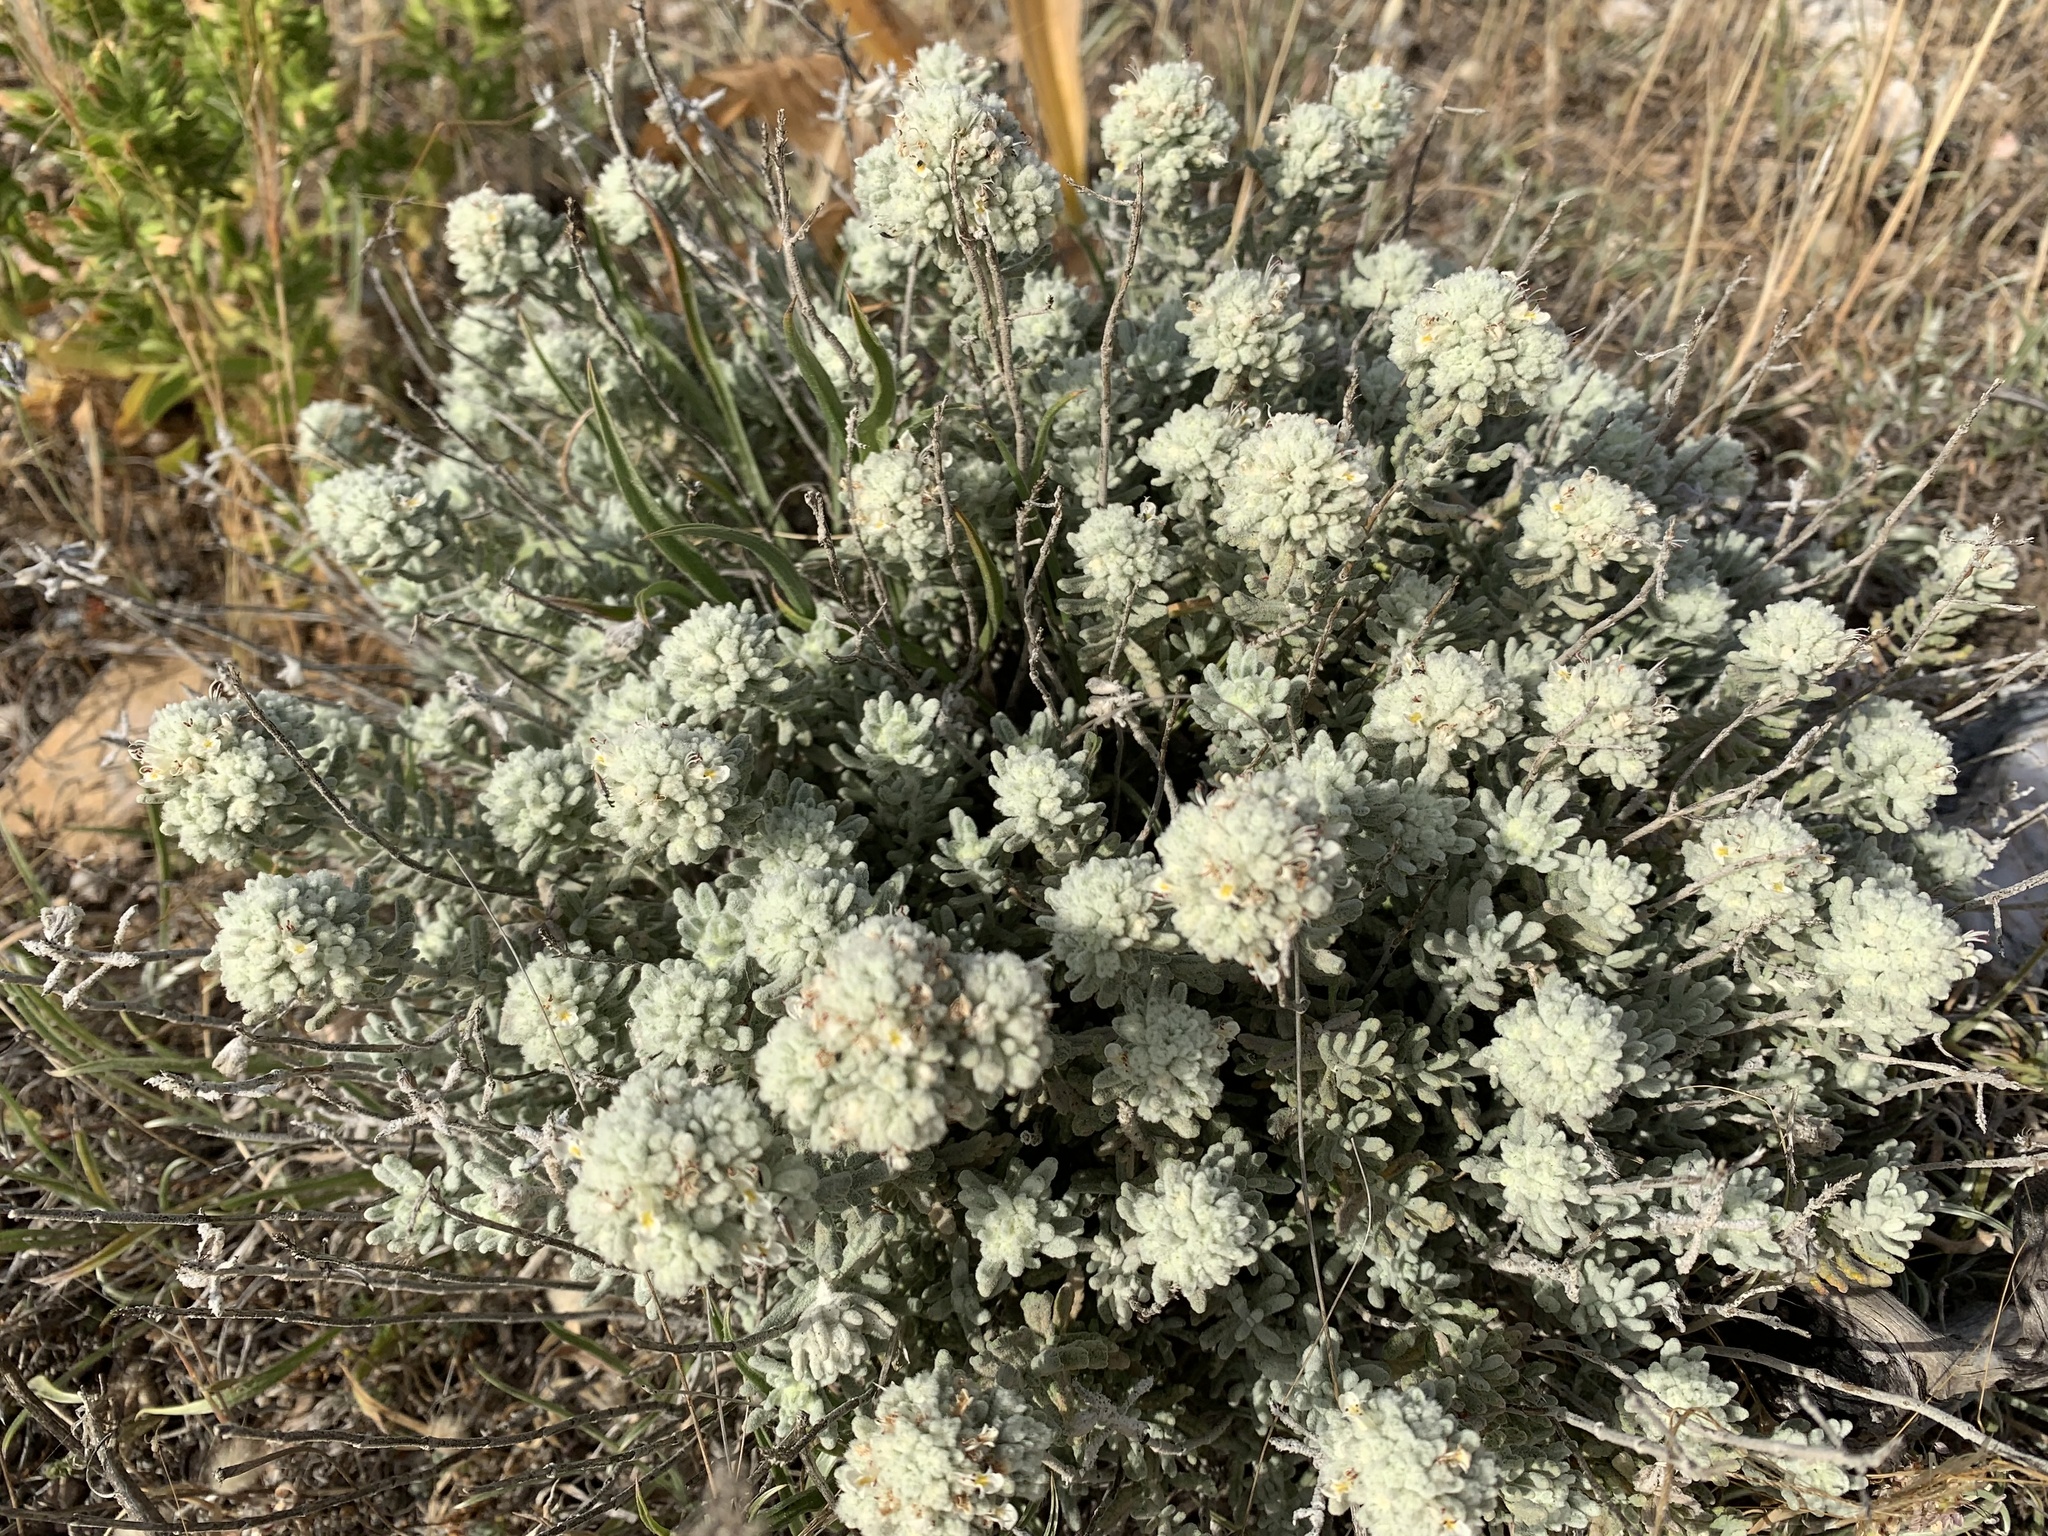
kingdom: Plantae
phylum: Tracheophyta
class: Magnoliopsida
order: Lamiales
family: Lamiaceae
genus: Teucrium
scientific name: Teucrium capitatum
